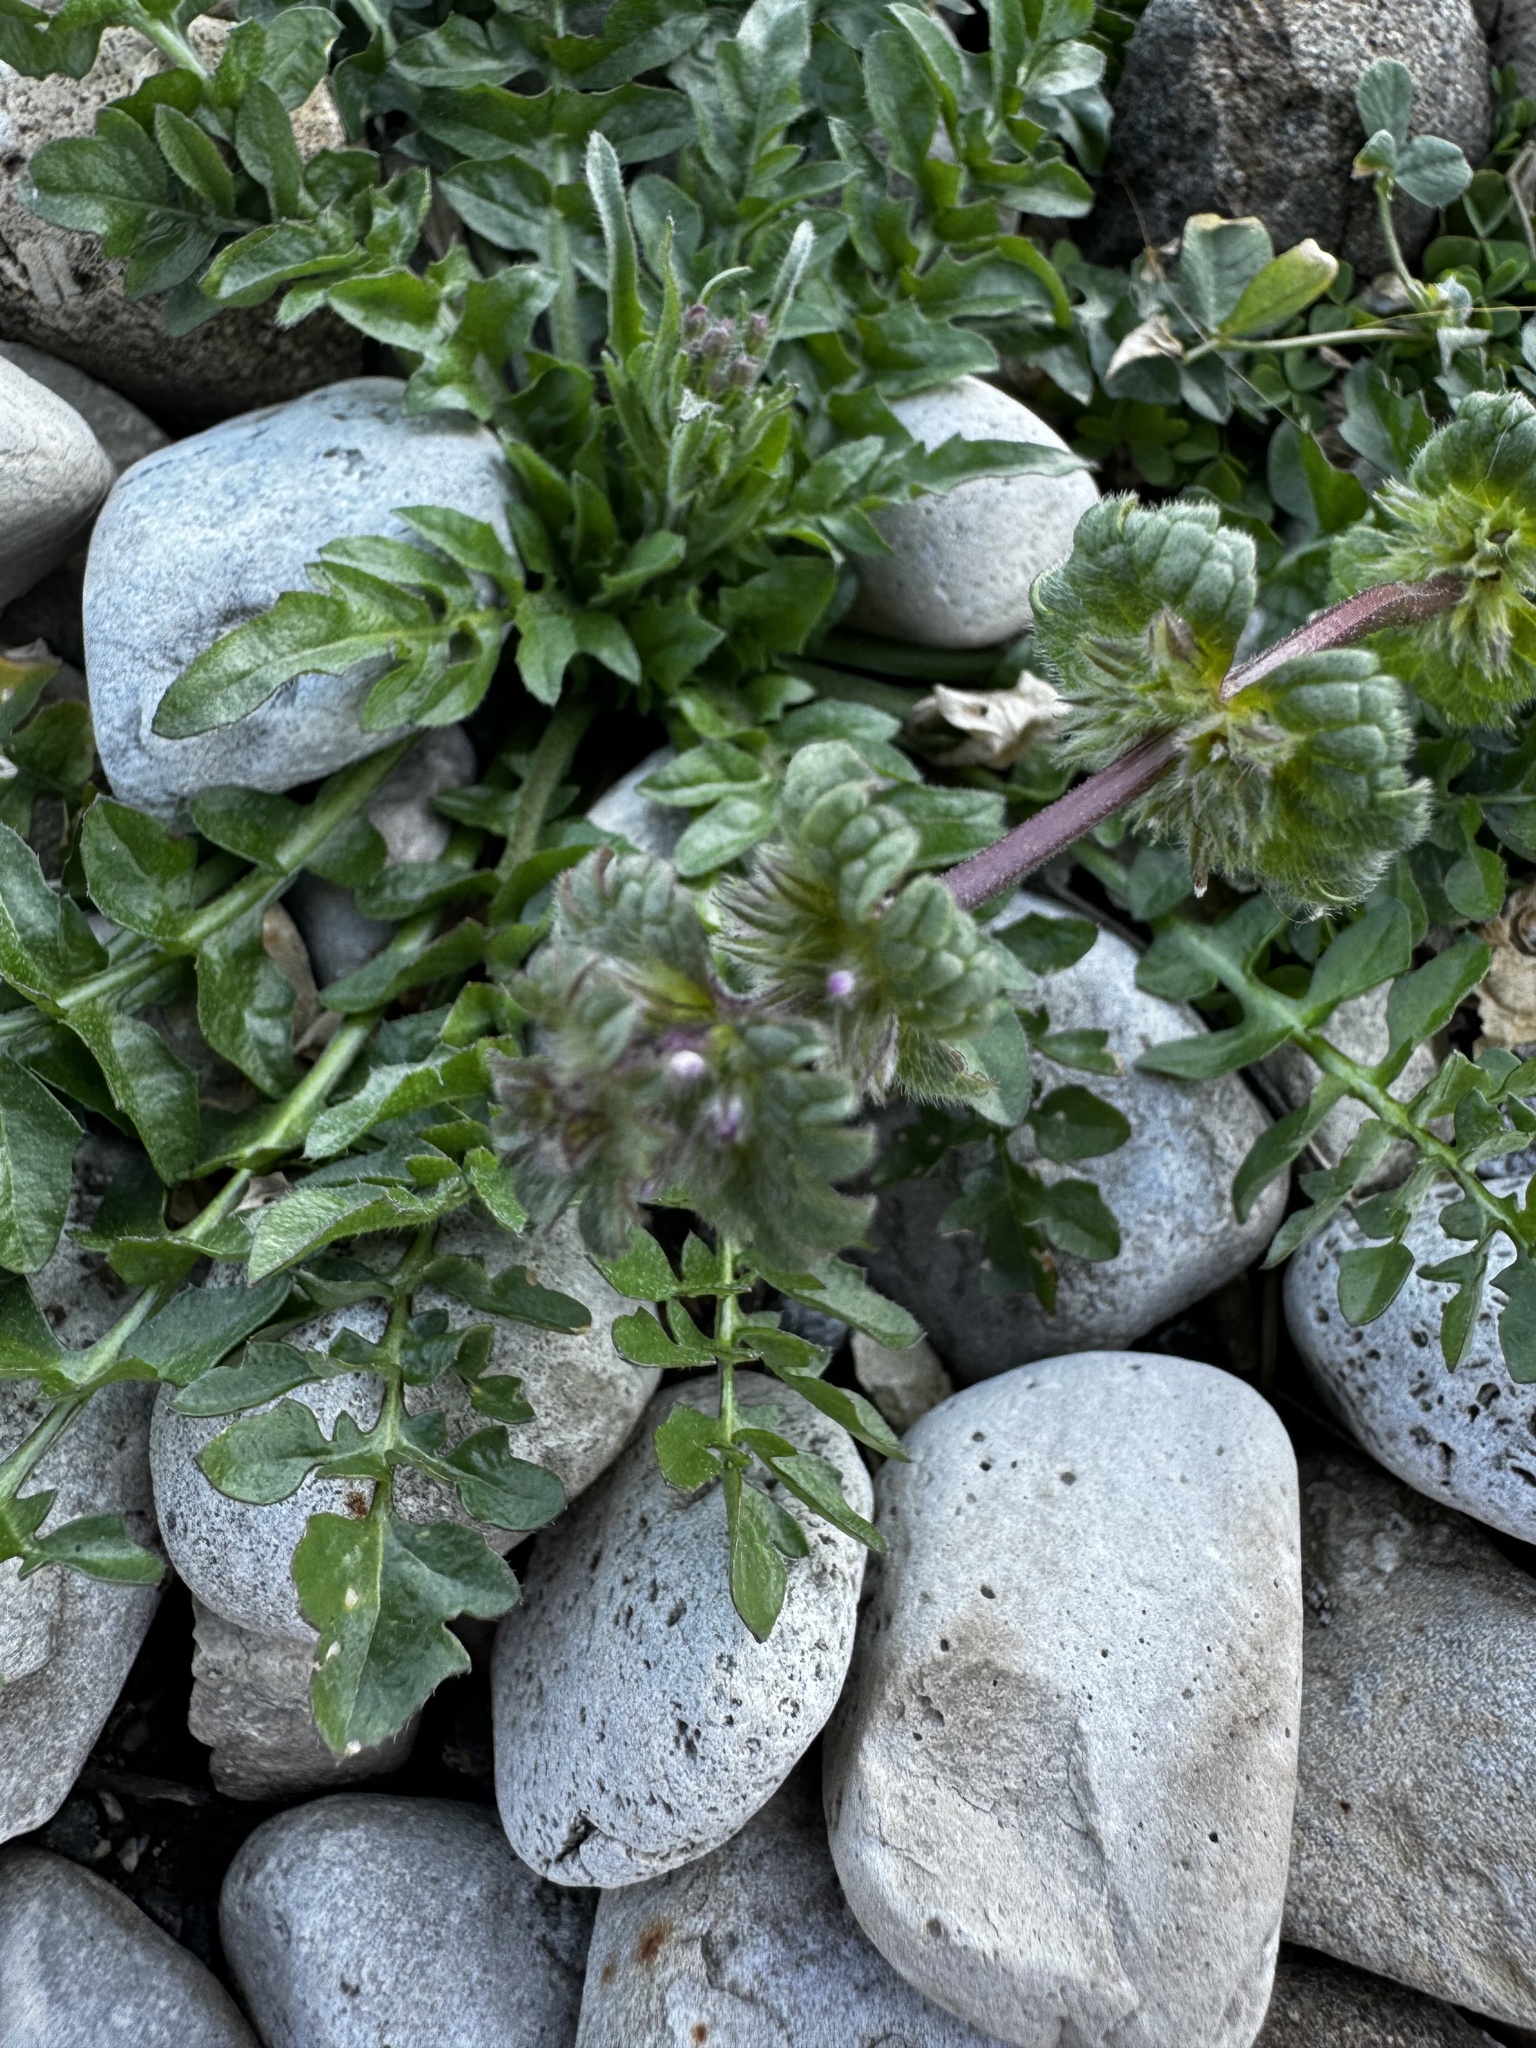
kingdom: Plantae
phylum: Tracheophyta
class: Magnoliopsida
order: Lamiales
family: Lamiaceae
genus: Lamium
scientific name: Lamium amplexicaule
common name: Henbit dead-nettle
